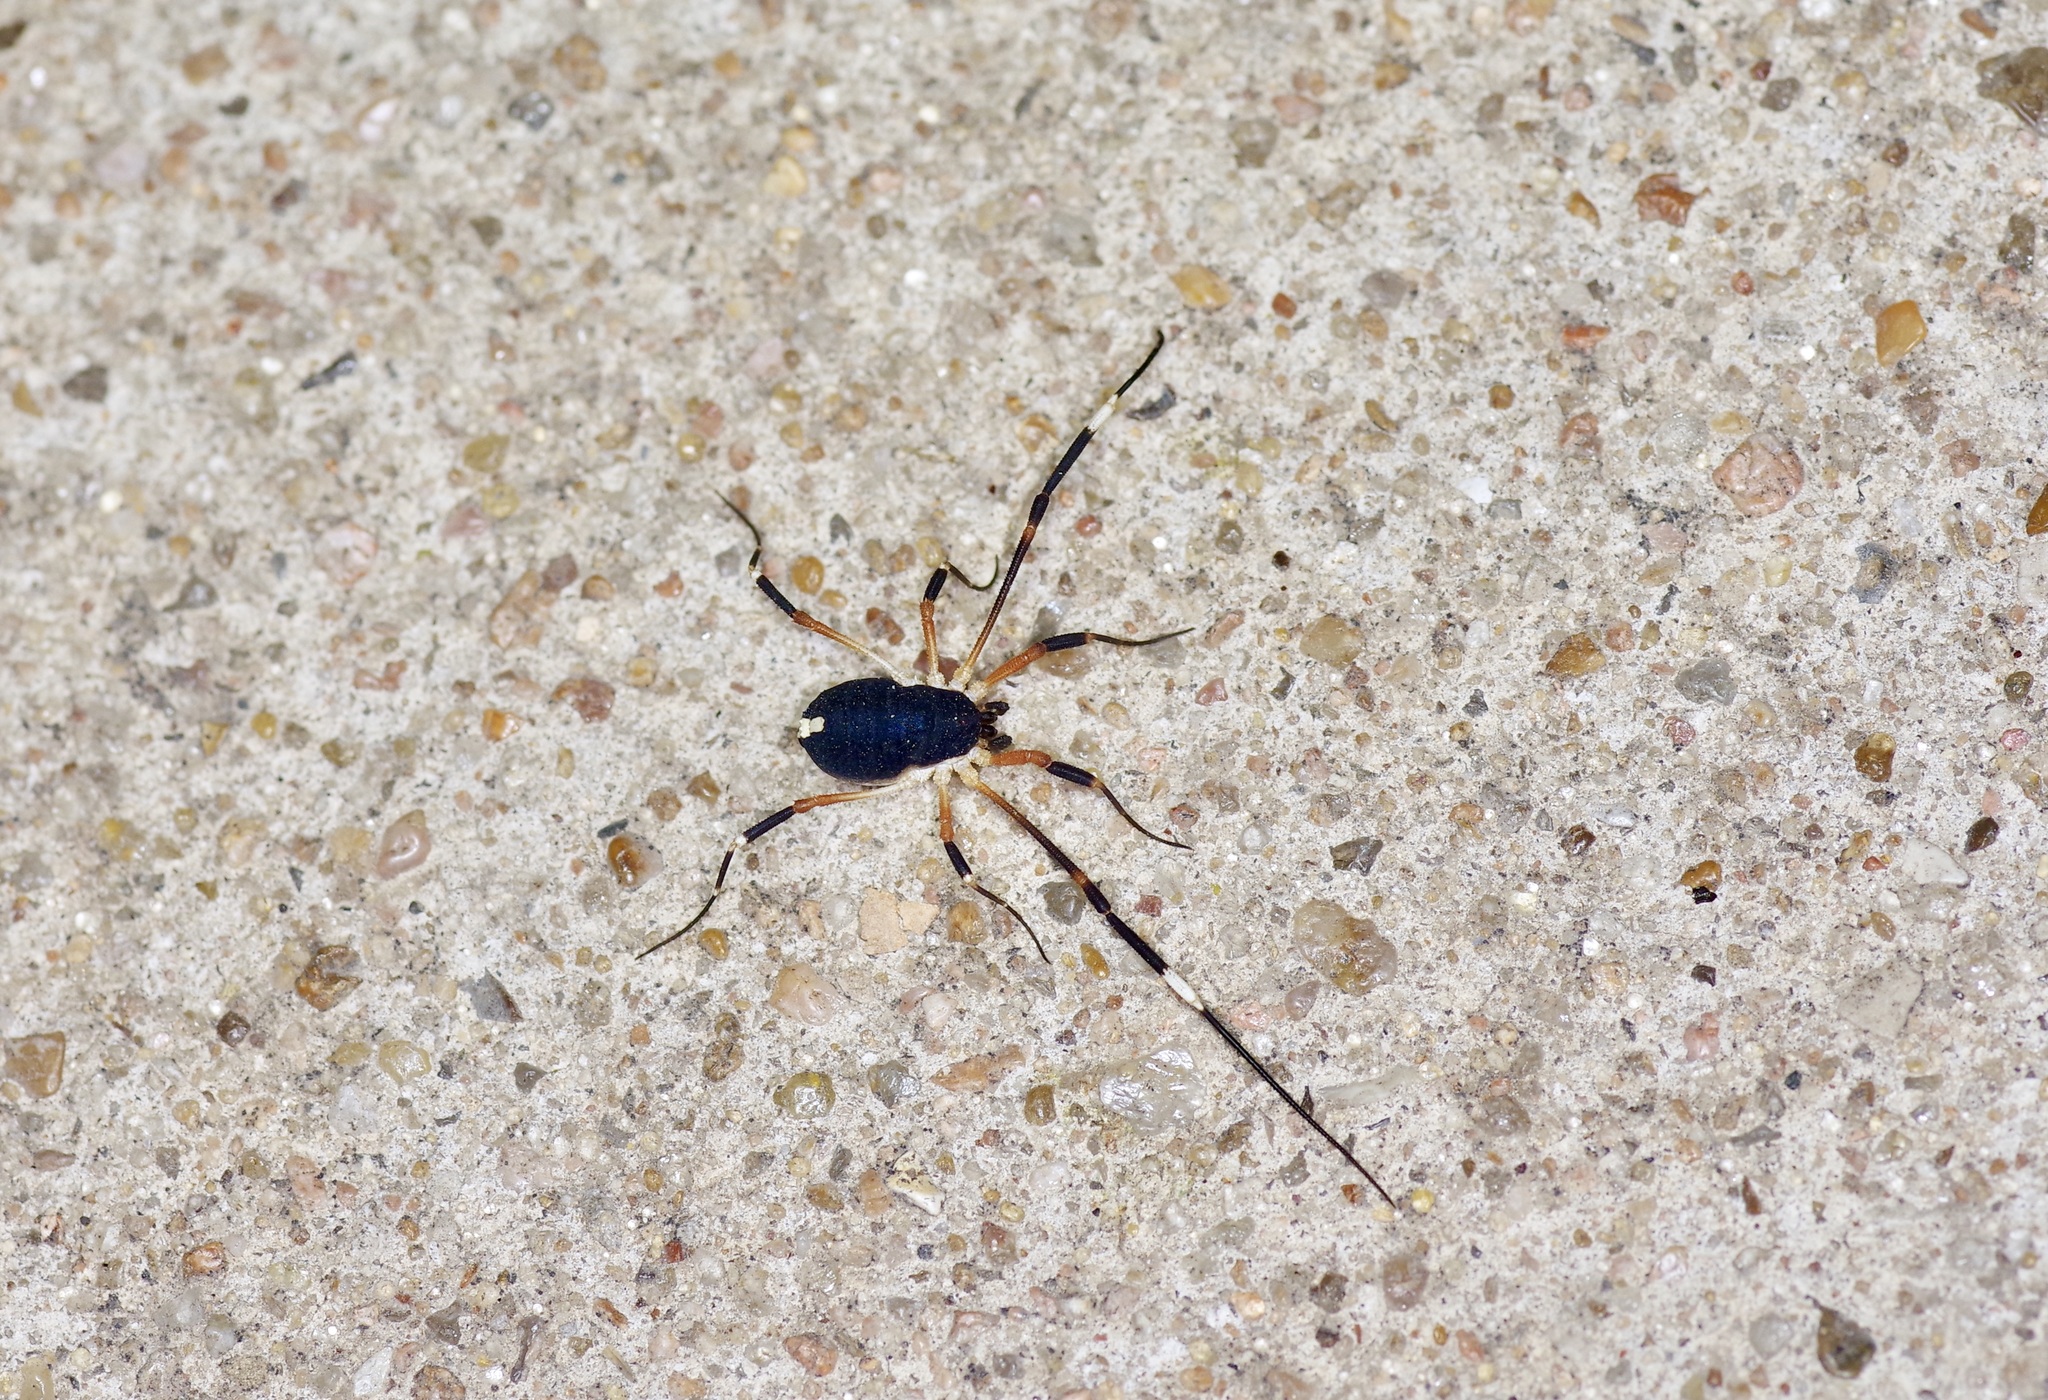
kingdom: Animalia
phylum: Arthropoda
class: Arachnida
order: Opiliones
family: Globipedidae
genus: Dalquestia
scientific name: Dalquestia formosa
